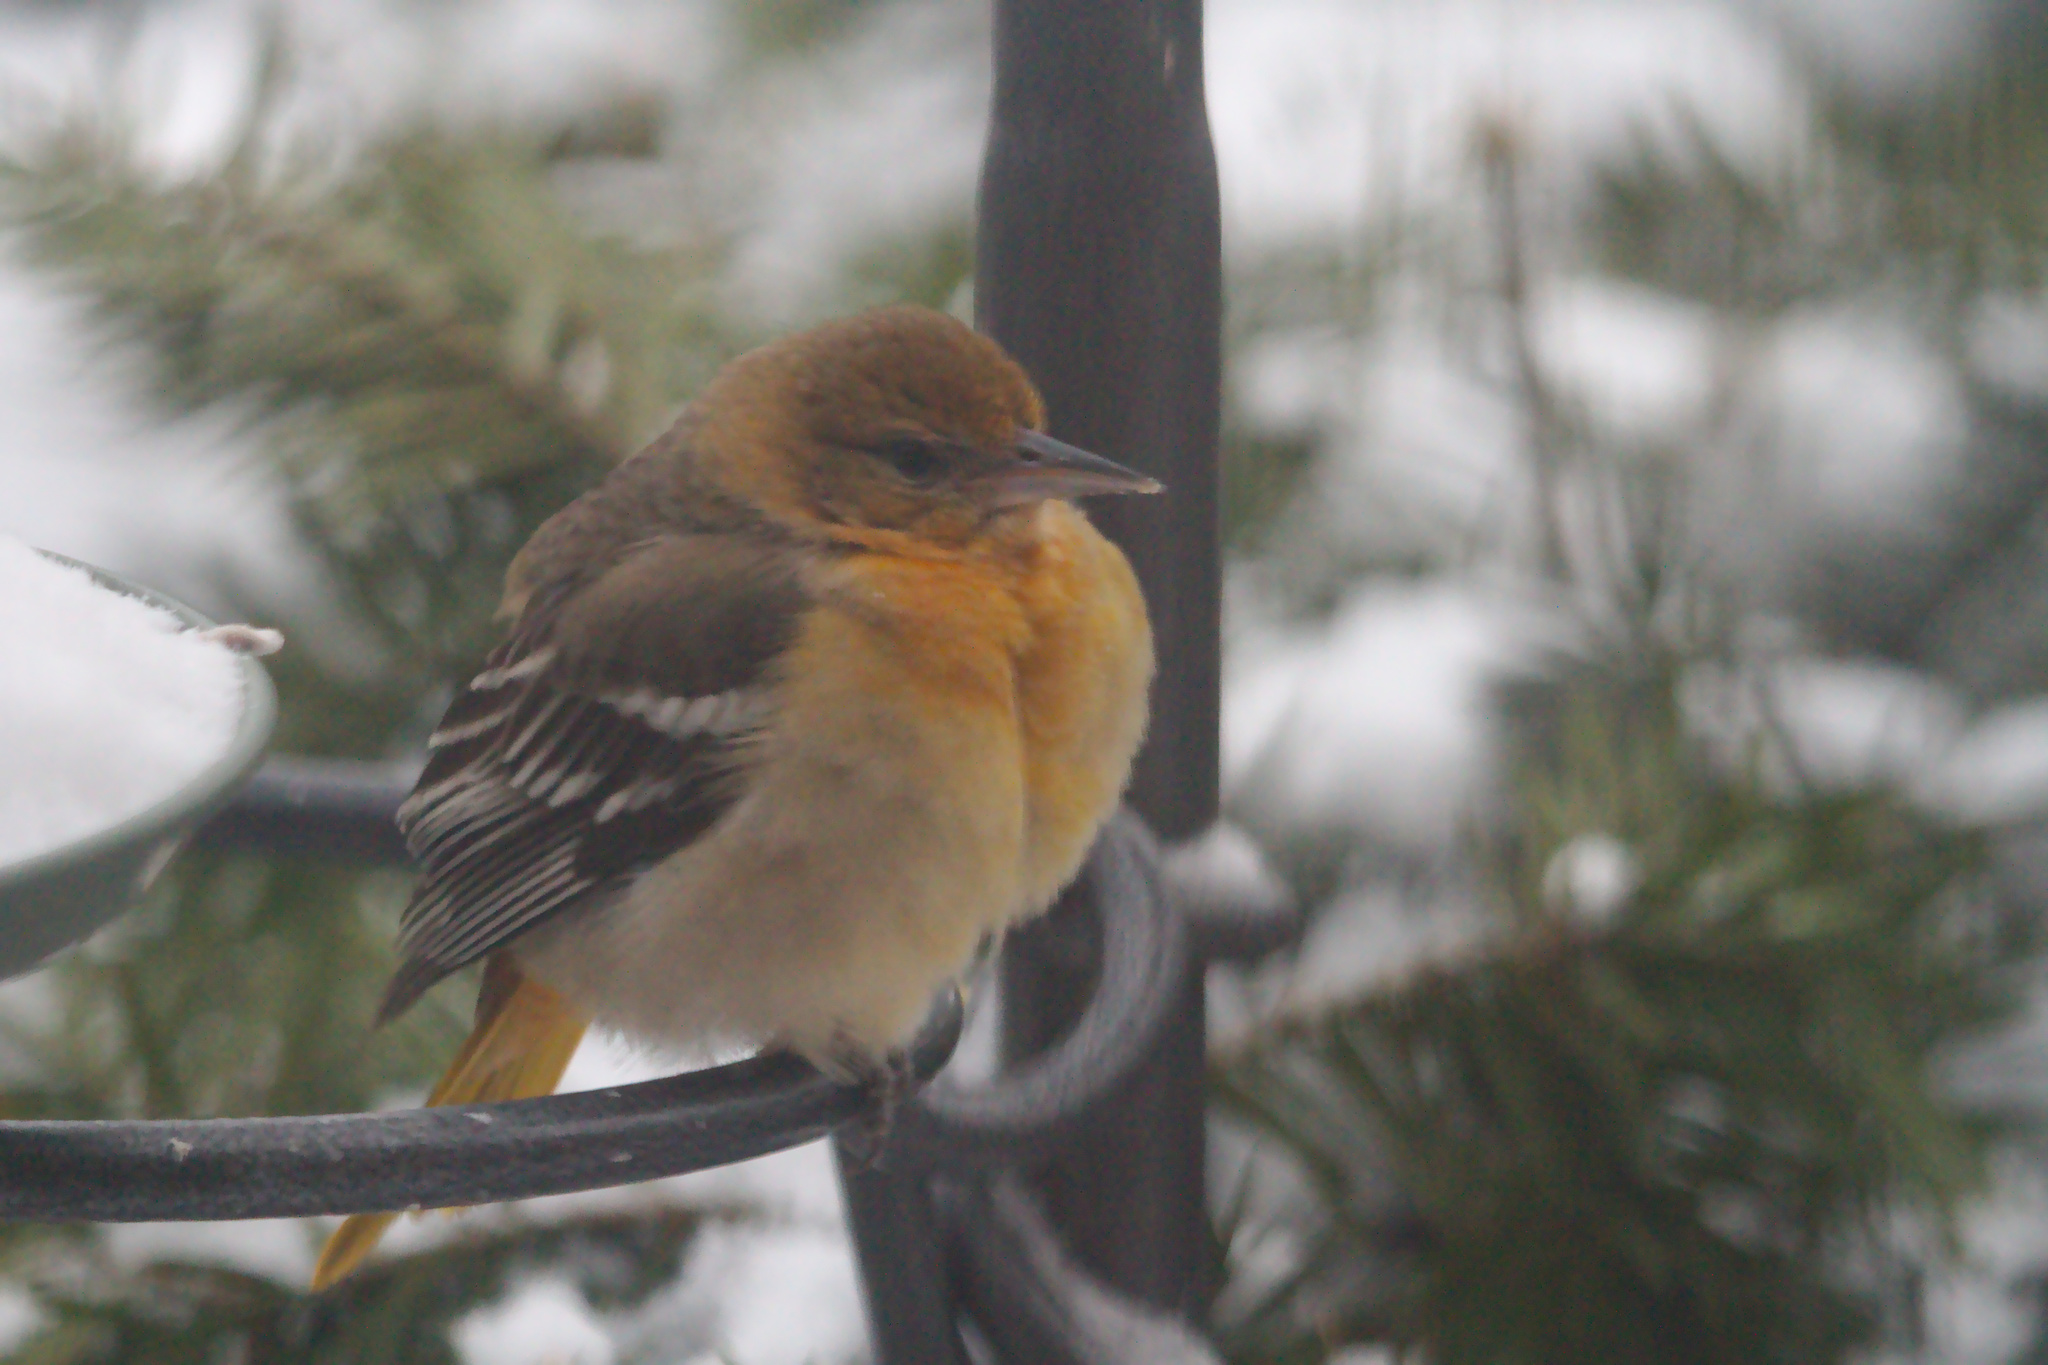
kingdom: Animalia
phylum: Chordata
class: Aves
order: Passeriformes
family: Icteridae
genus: Icterus
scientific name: Icterus galbula
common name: Baltimore oriole
